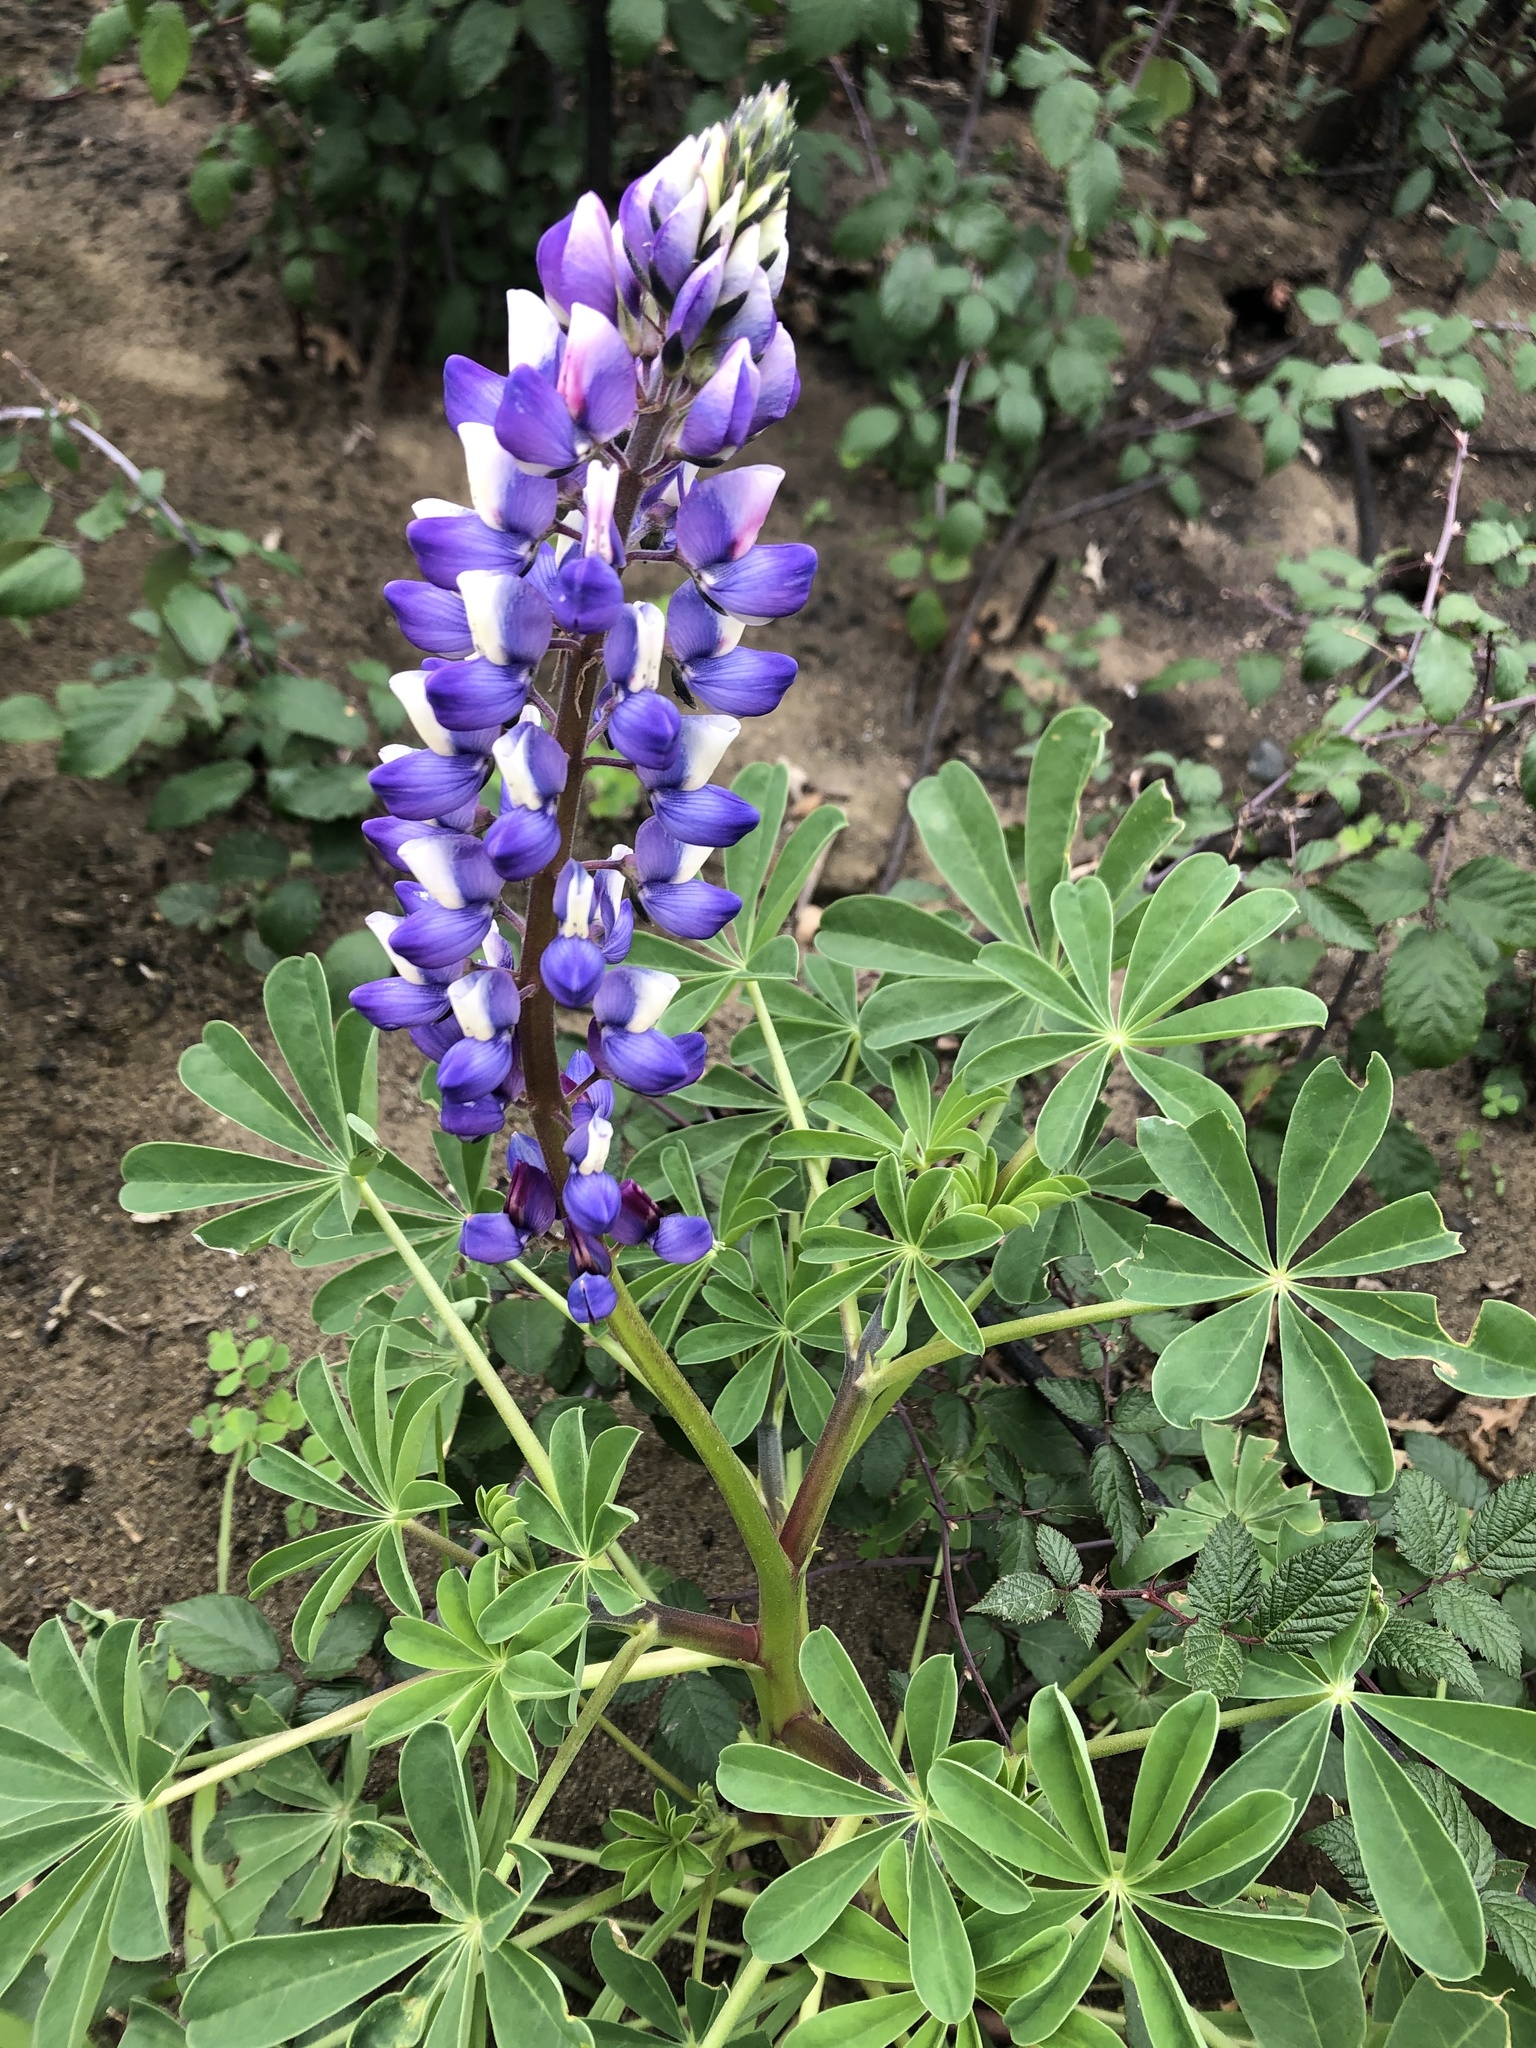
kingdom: Plantae
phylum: Tracheophyta
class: Magnoliopsida
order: Fabales
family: Fabaceae
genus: Lupinus
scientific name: Lupinus succulentus
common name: Arroyo lupine
